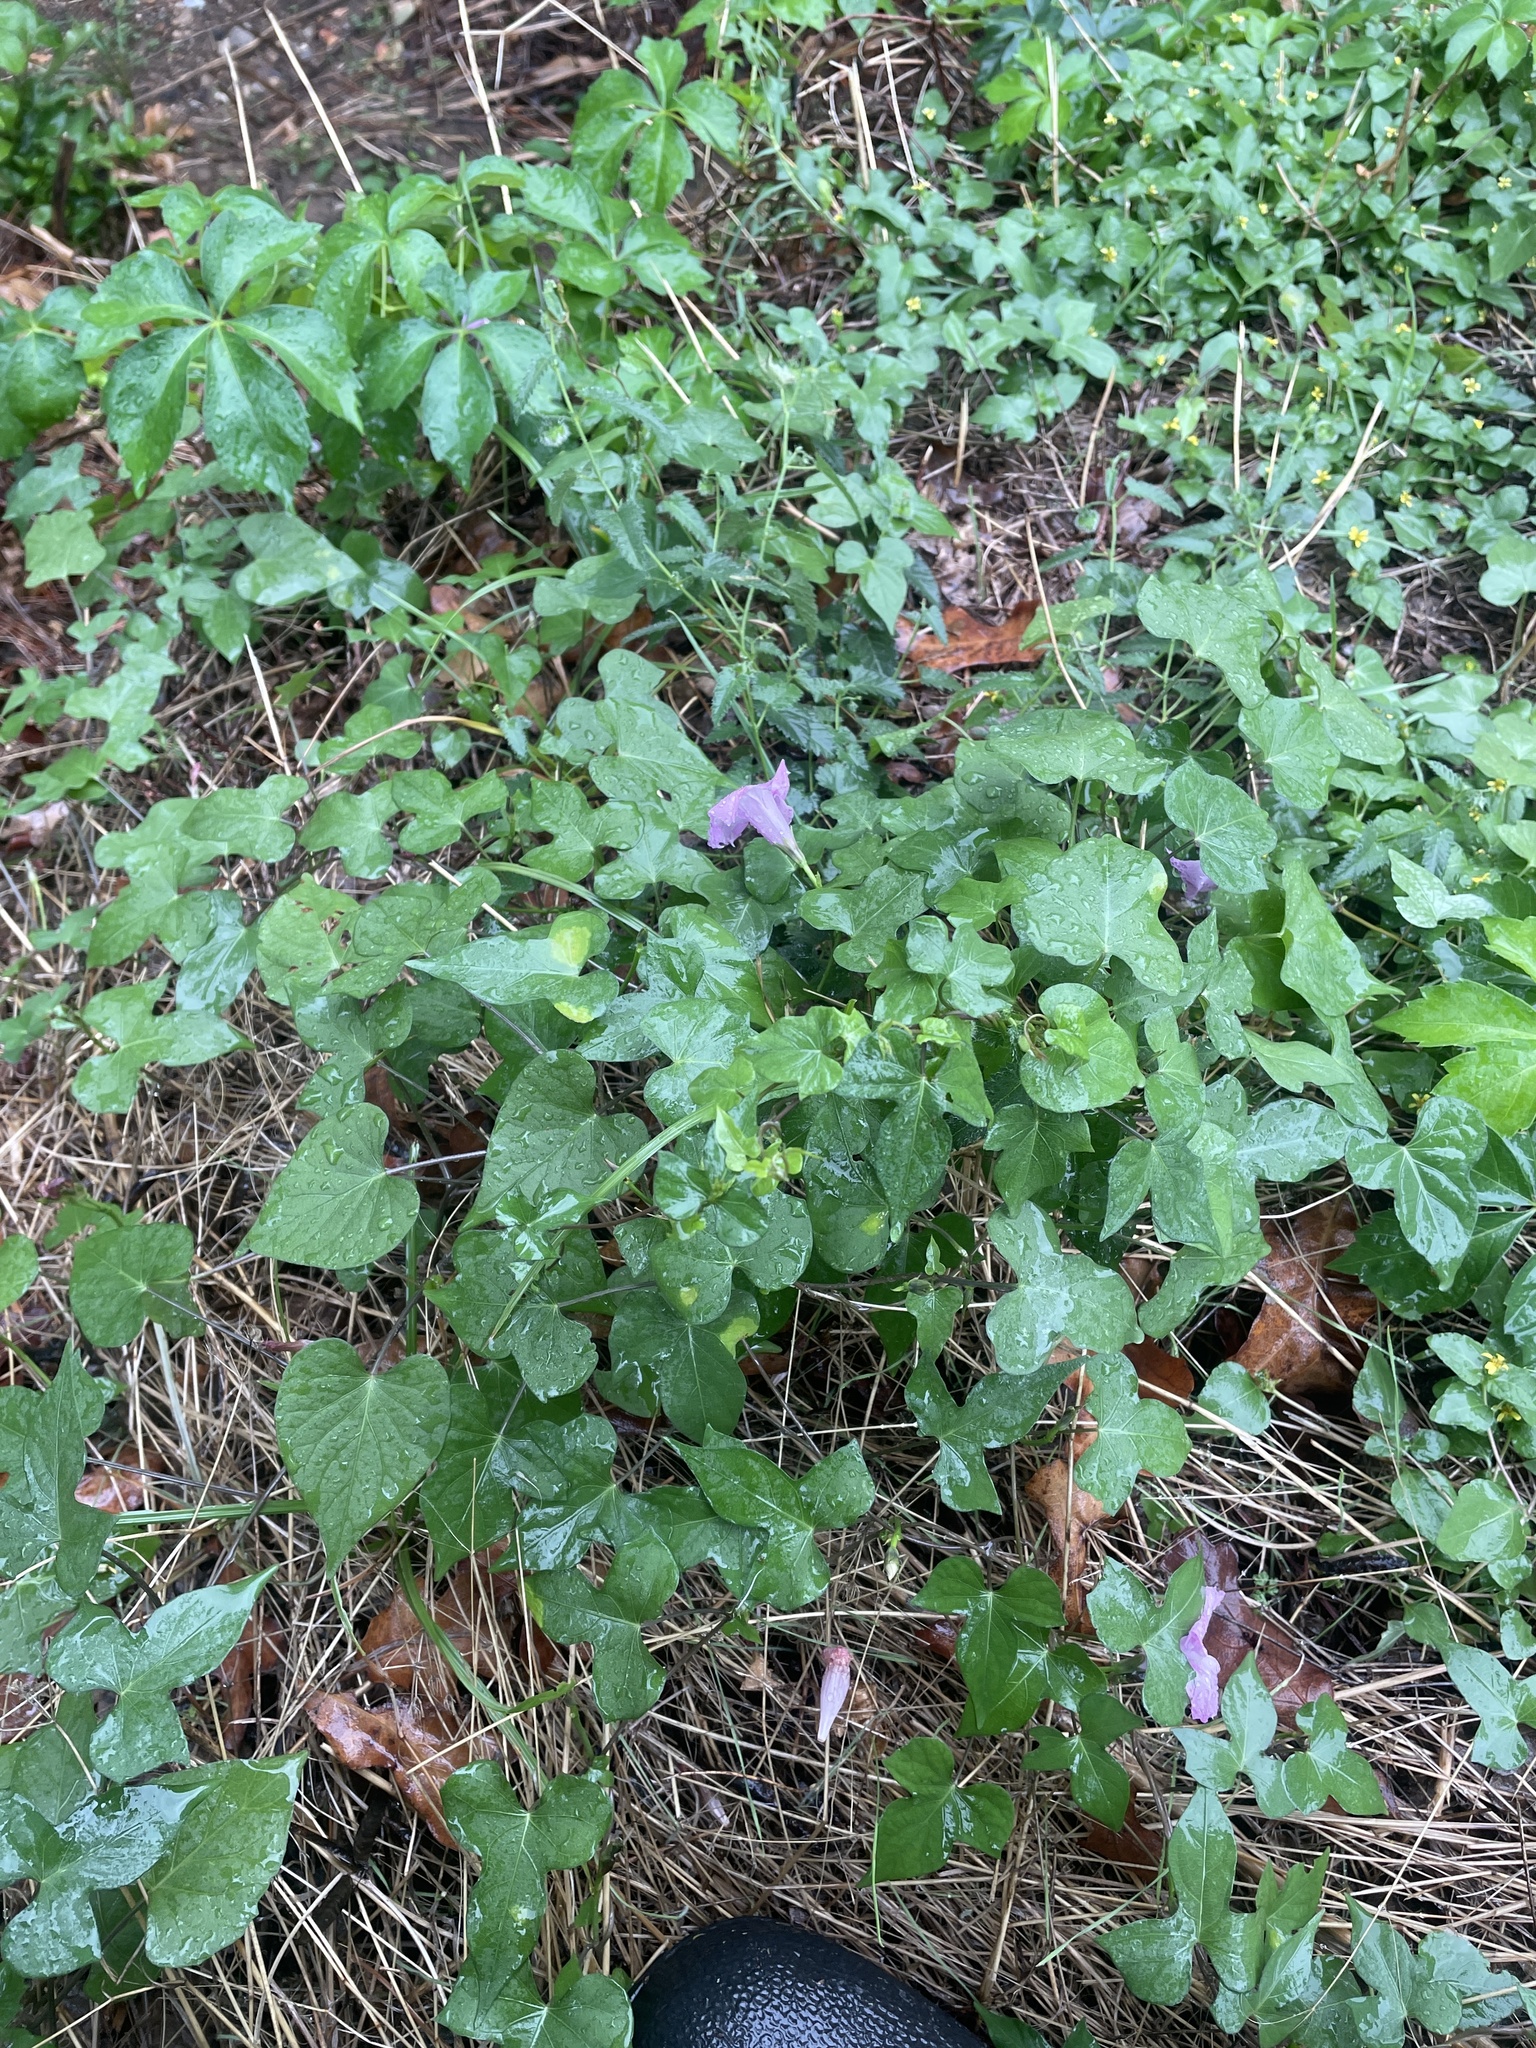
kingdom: Plantae
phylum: Tracheophyta
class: Magnoliopsida
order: Solanales
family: Convolvulaceae
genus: Ipomoea
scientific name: Ipomoea cordatotriloba
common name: Cotton morning glory
